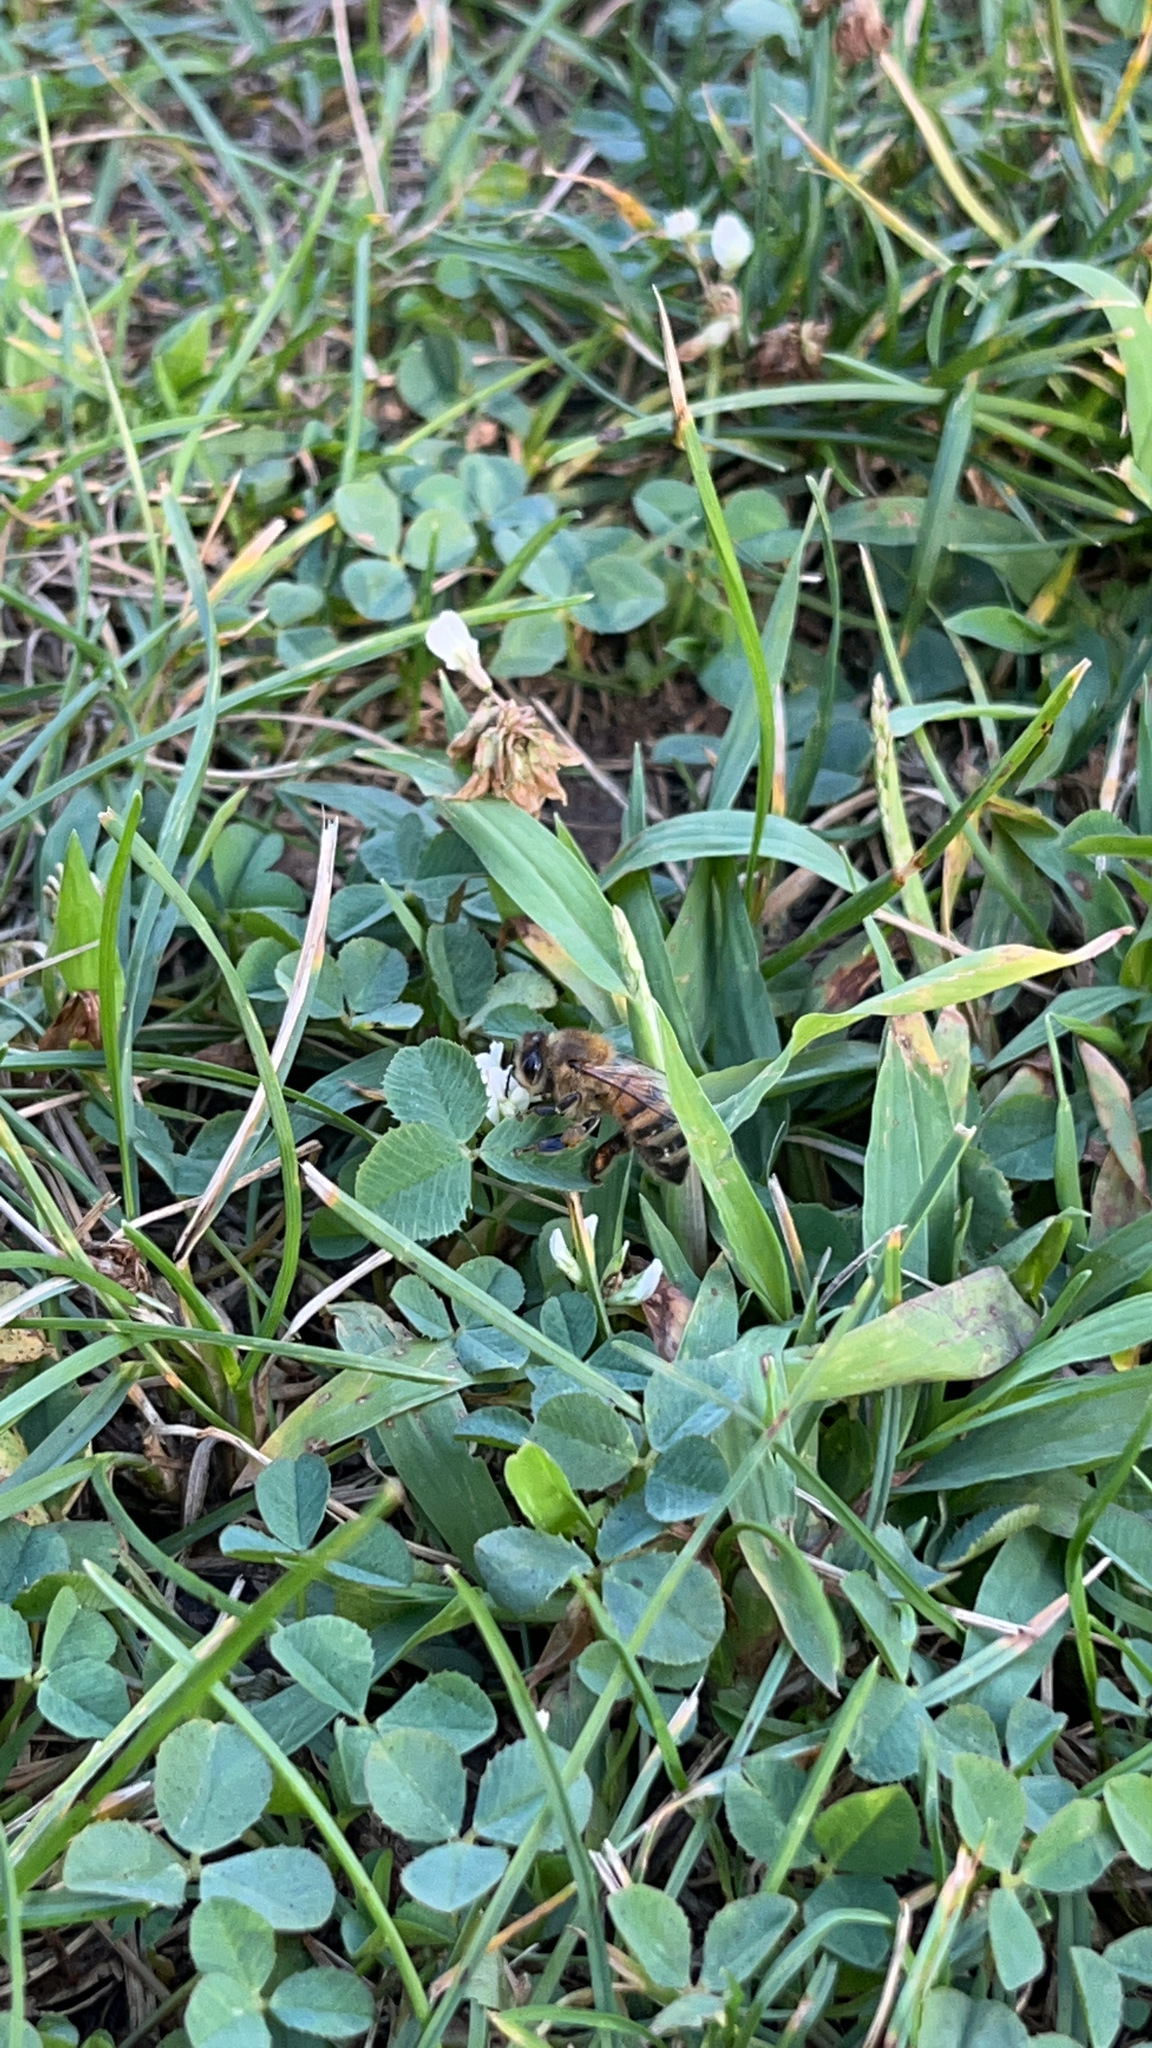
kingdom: Animalia
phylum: Arthropoda
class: Insecta
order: Hymenoptera
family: Apidae
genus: Apis
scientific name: Apis mellifera
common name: Honey bee
